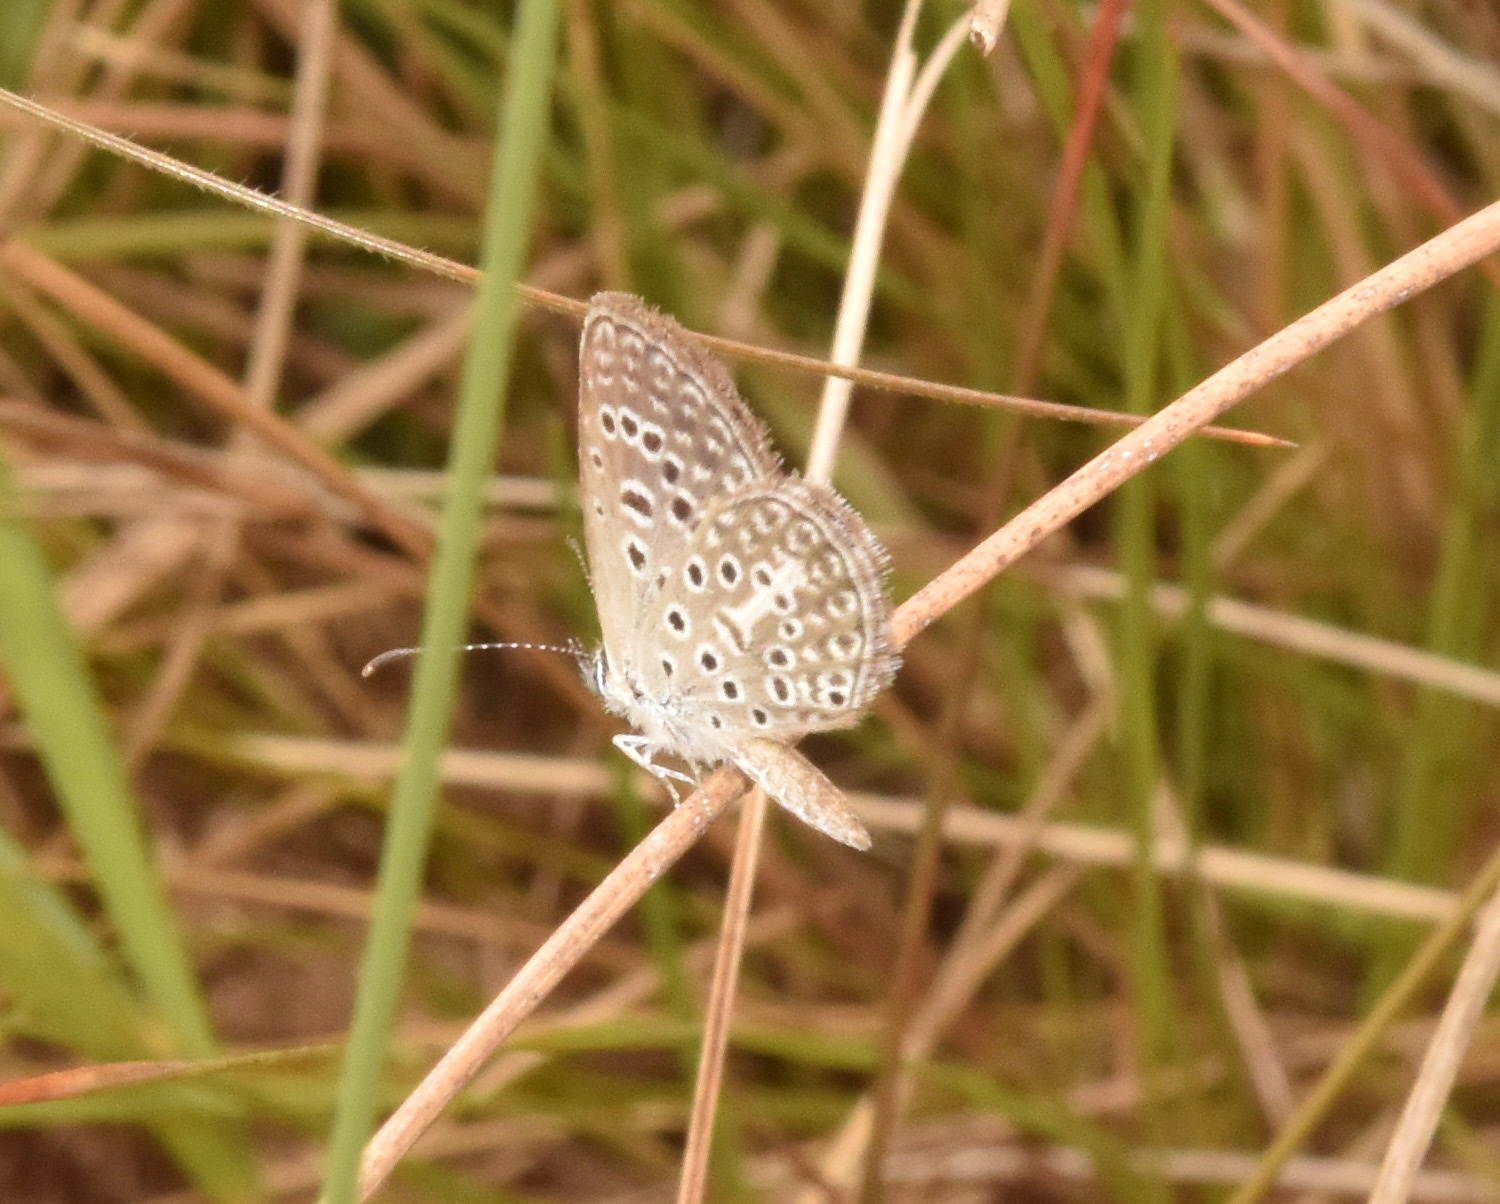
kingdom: Animalia
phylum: Arthropoda
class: Insecta
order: Lepidoptera
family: Lycaenidae
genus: Actizera
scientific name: Actizera lucida
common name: Rayed blue
